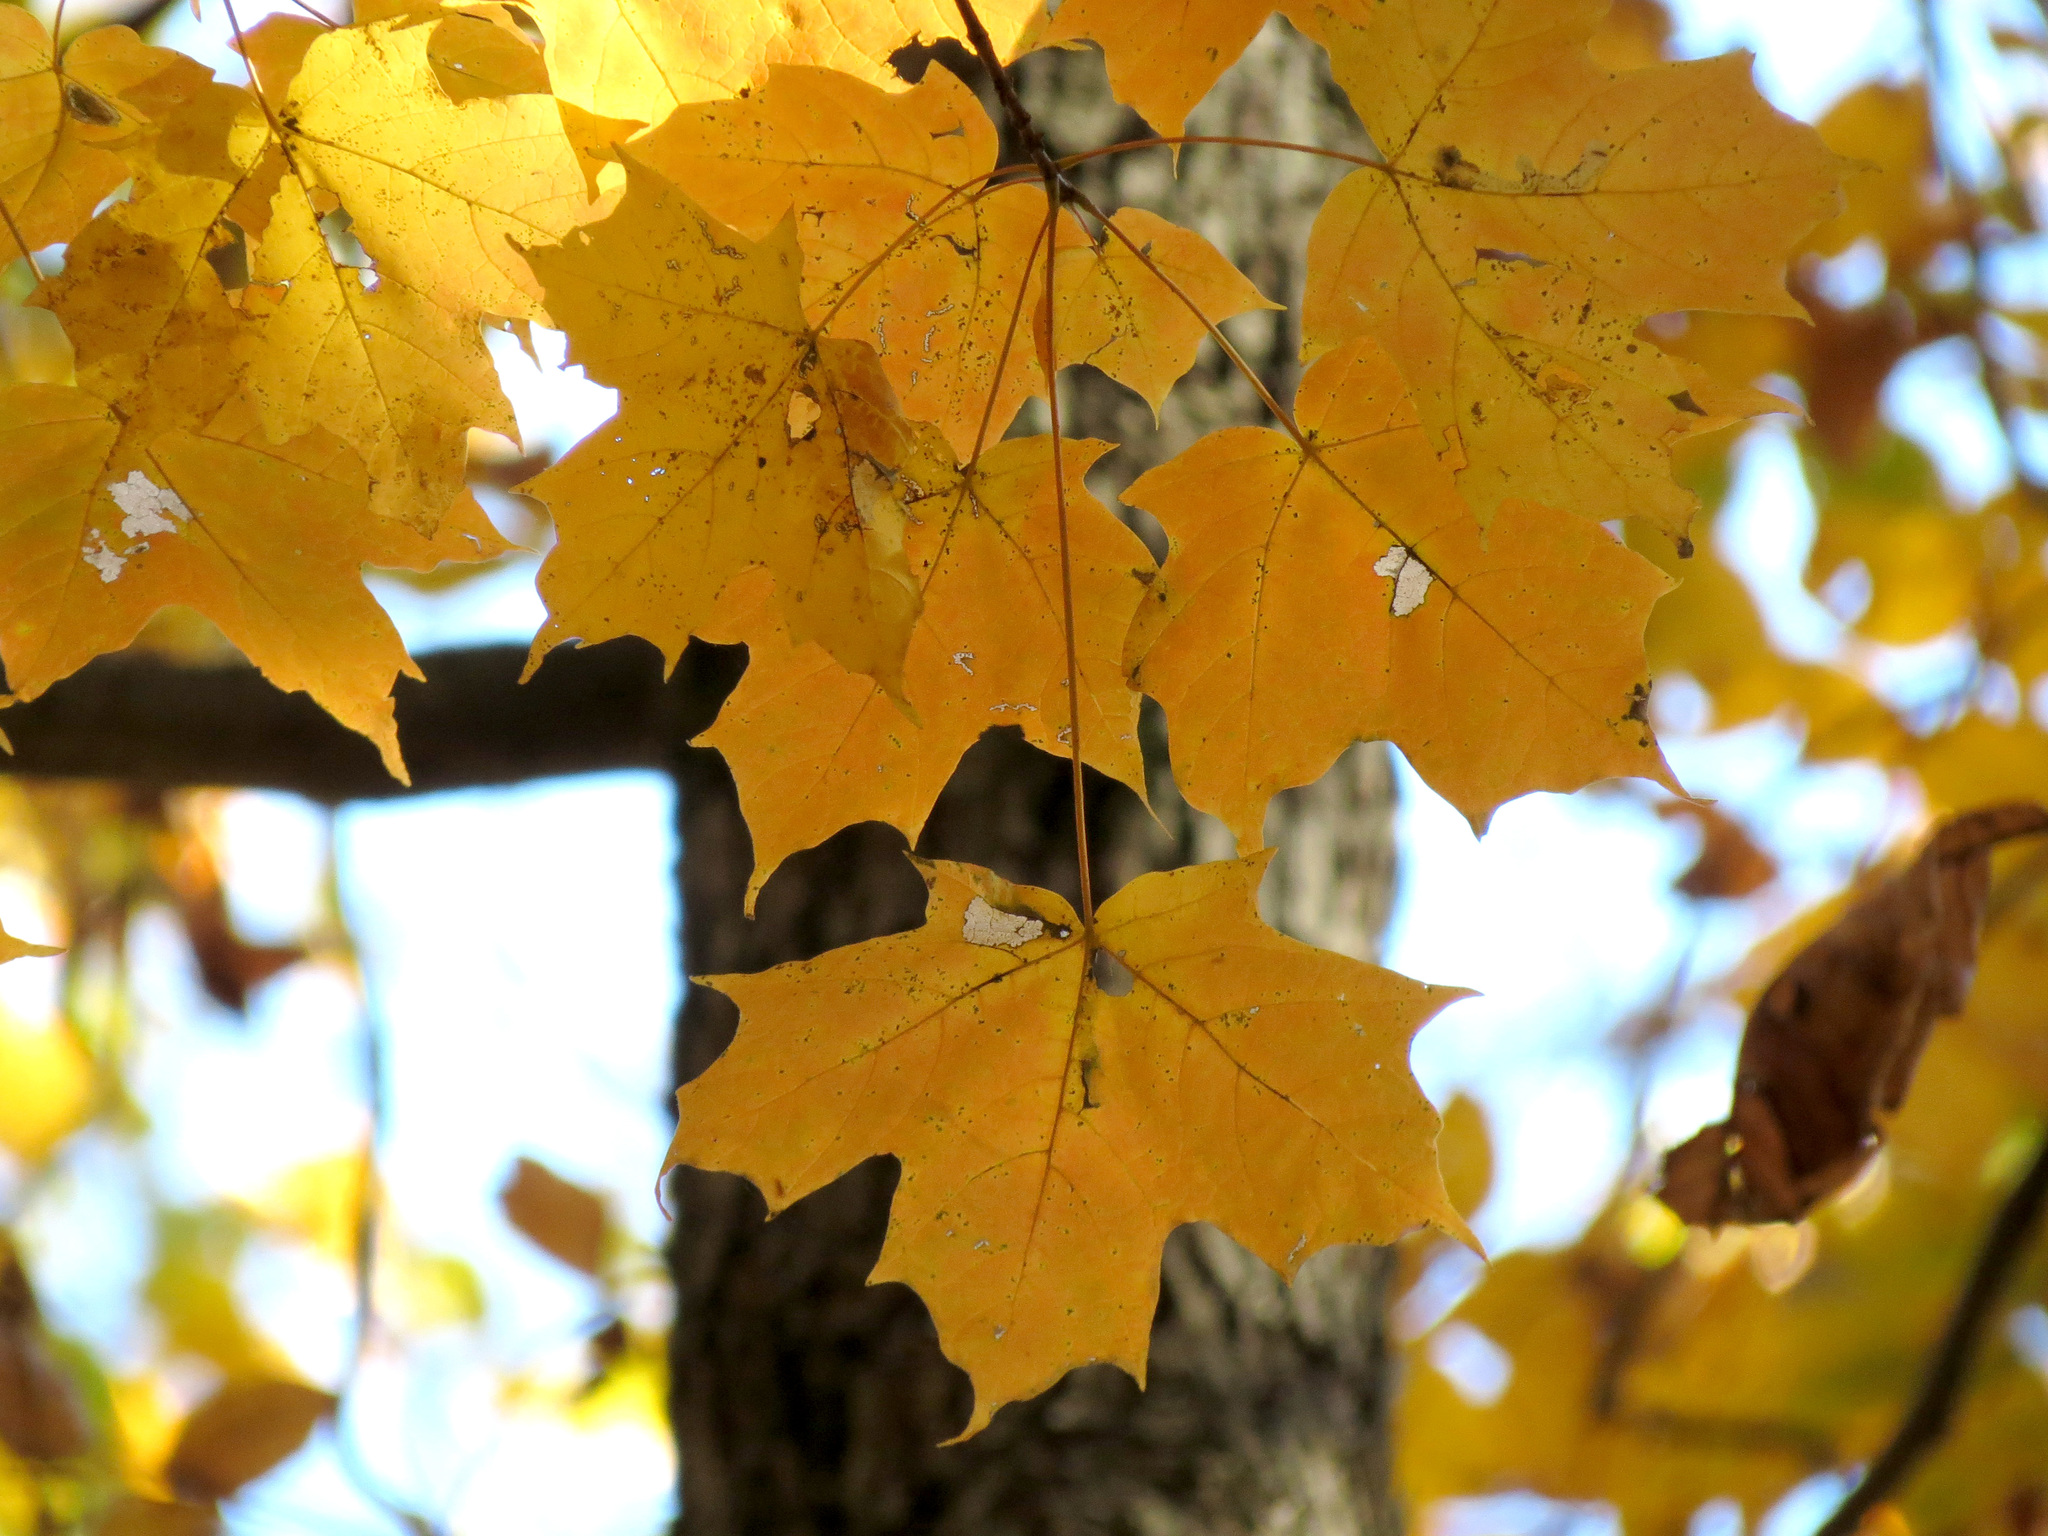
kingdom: Plantae
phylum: Tracheophyta
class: Magnoliopsida
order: Sapindales
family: Sapindaceae
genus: Acer
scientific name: Acer saccharum
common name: Sugar maple
